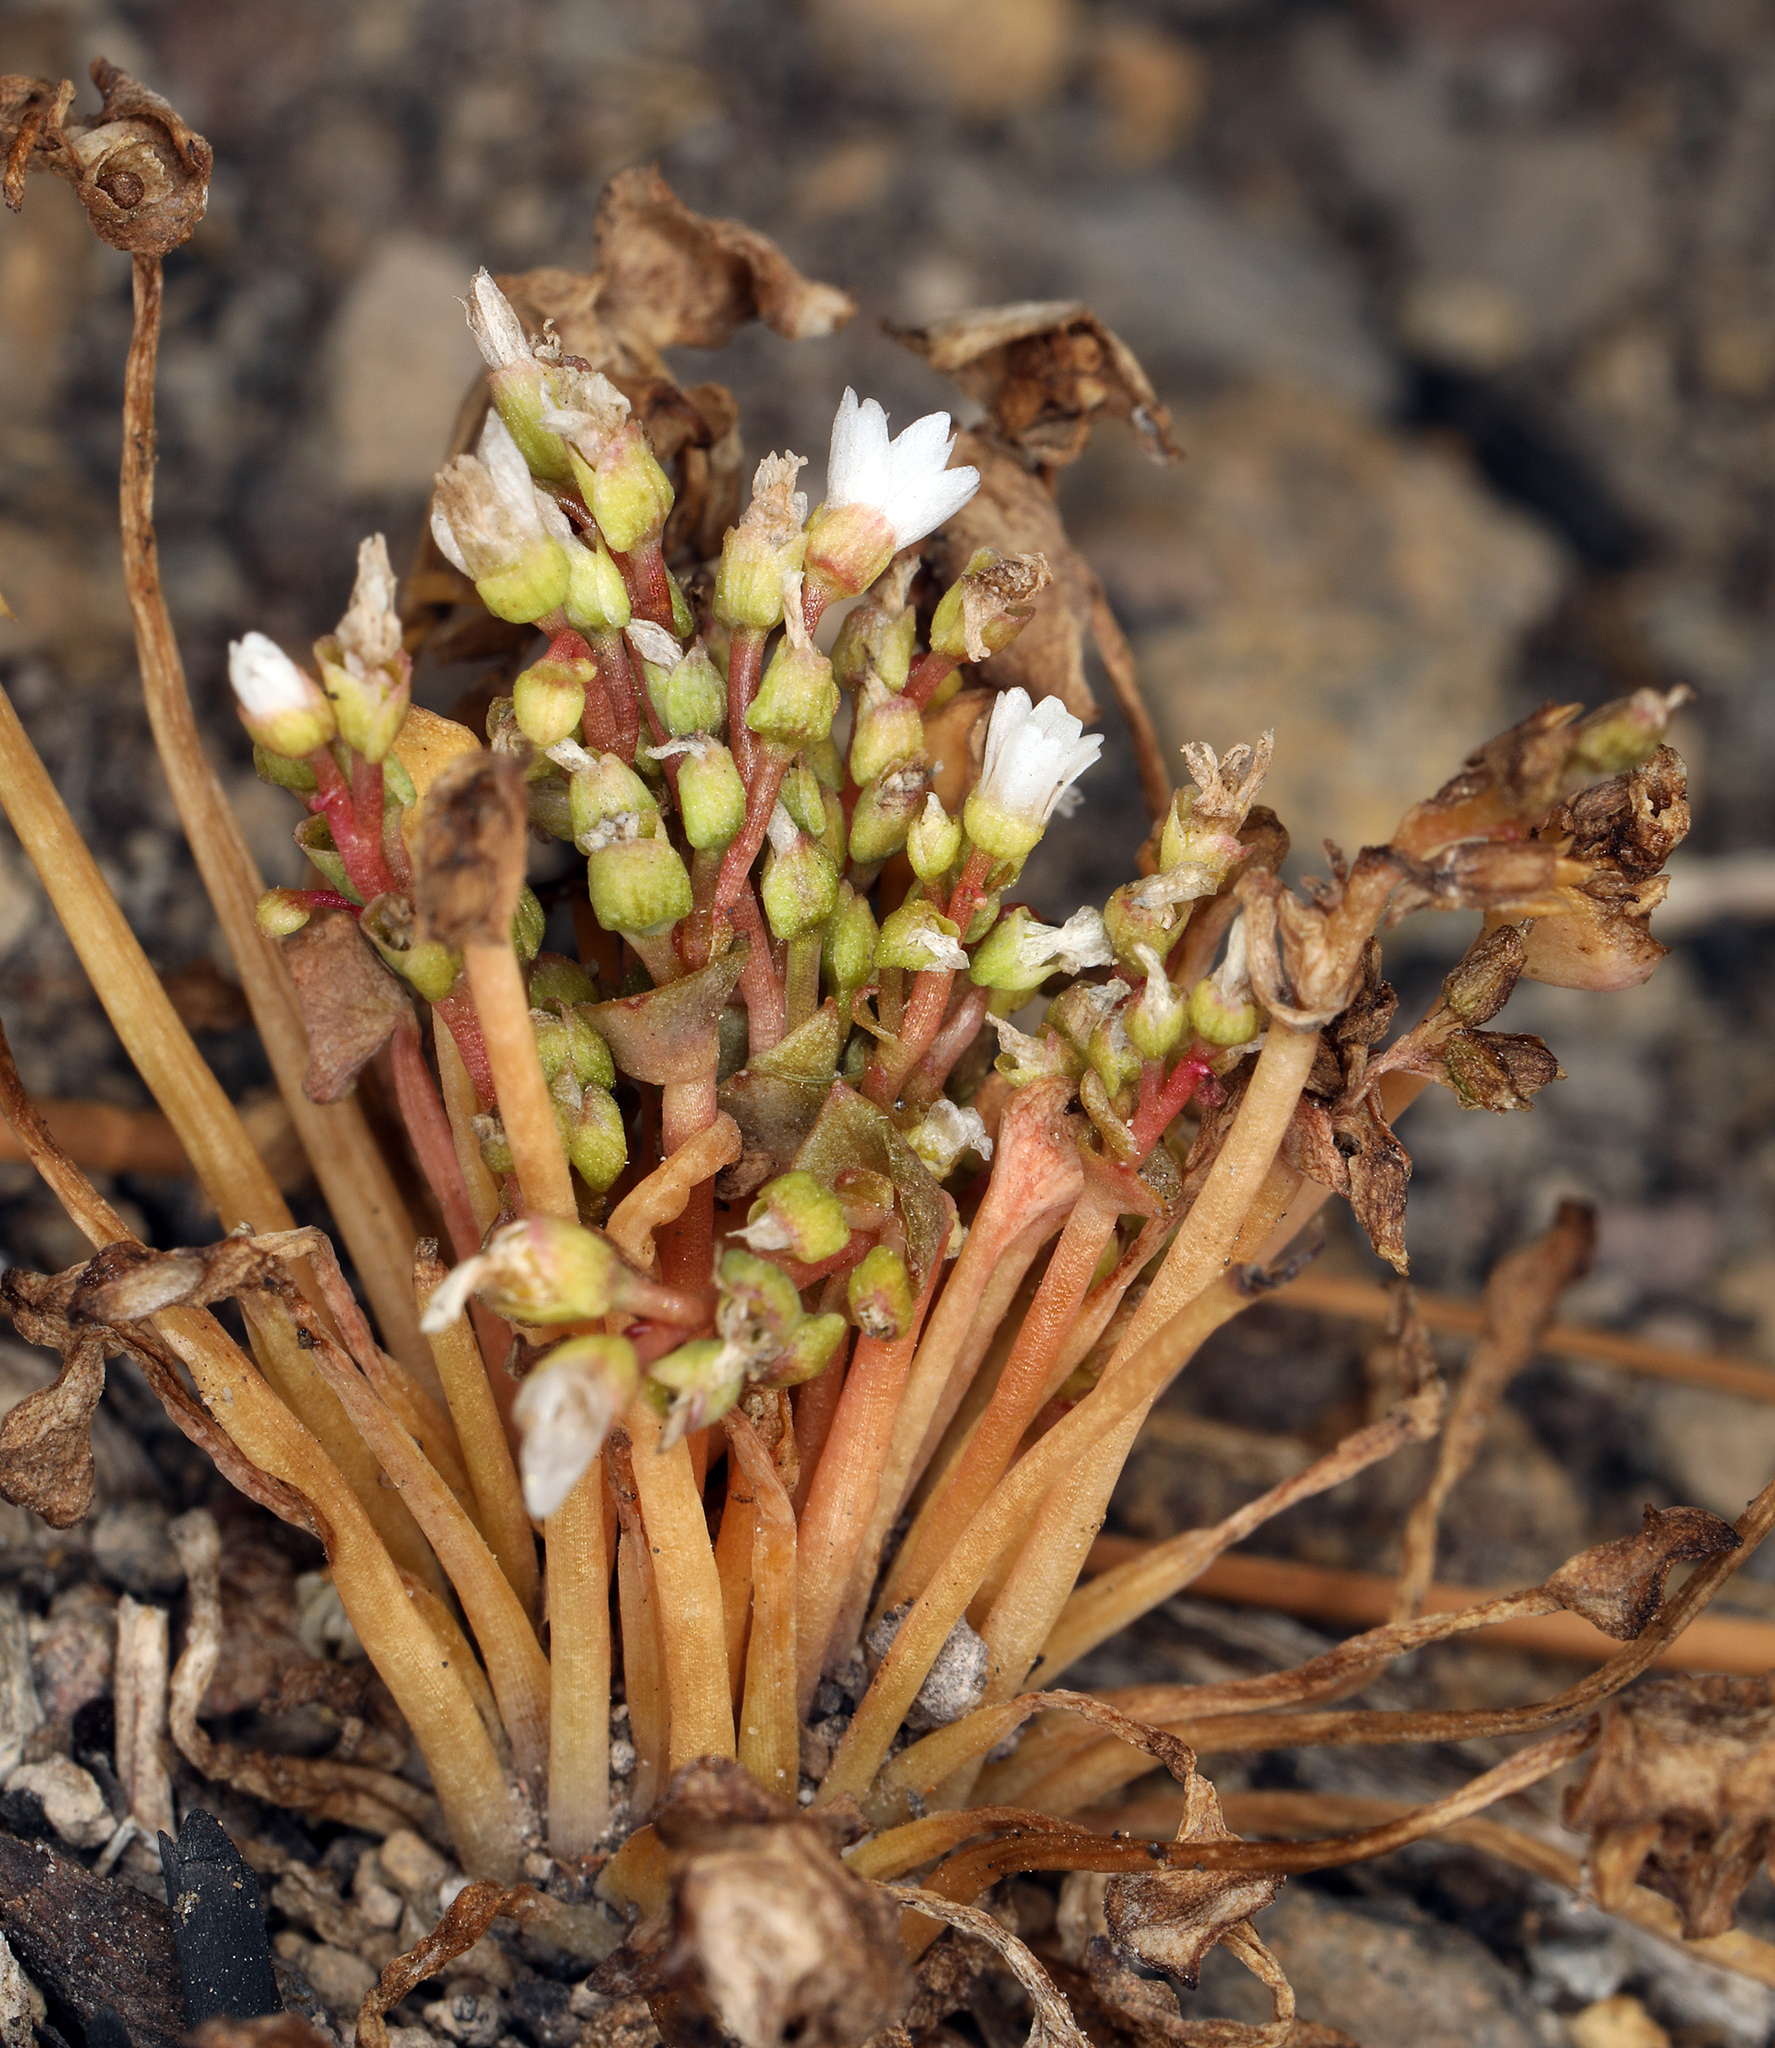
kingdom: Plantae
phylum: Tracheophyta
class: Magnoliopsida
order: Caryophyllales
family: Montiaceae
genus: Montia
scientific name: Montia linearis
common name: Narrow-leaf montia
